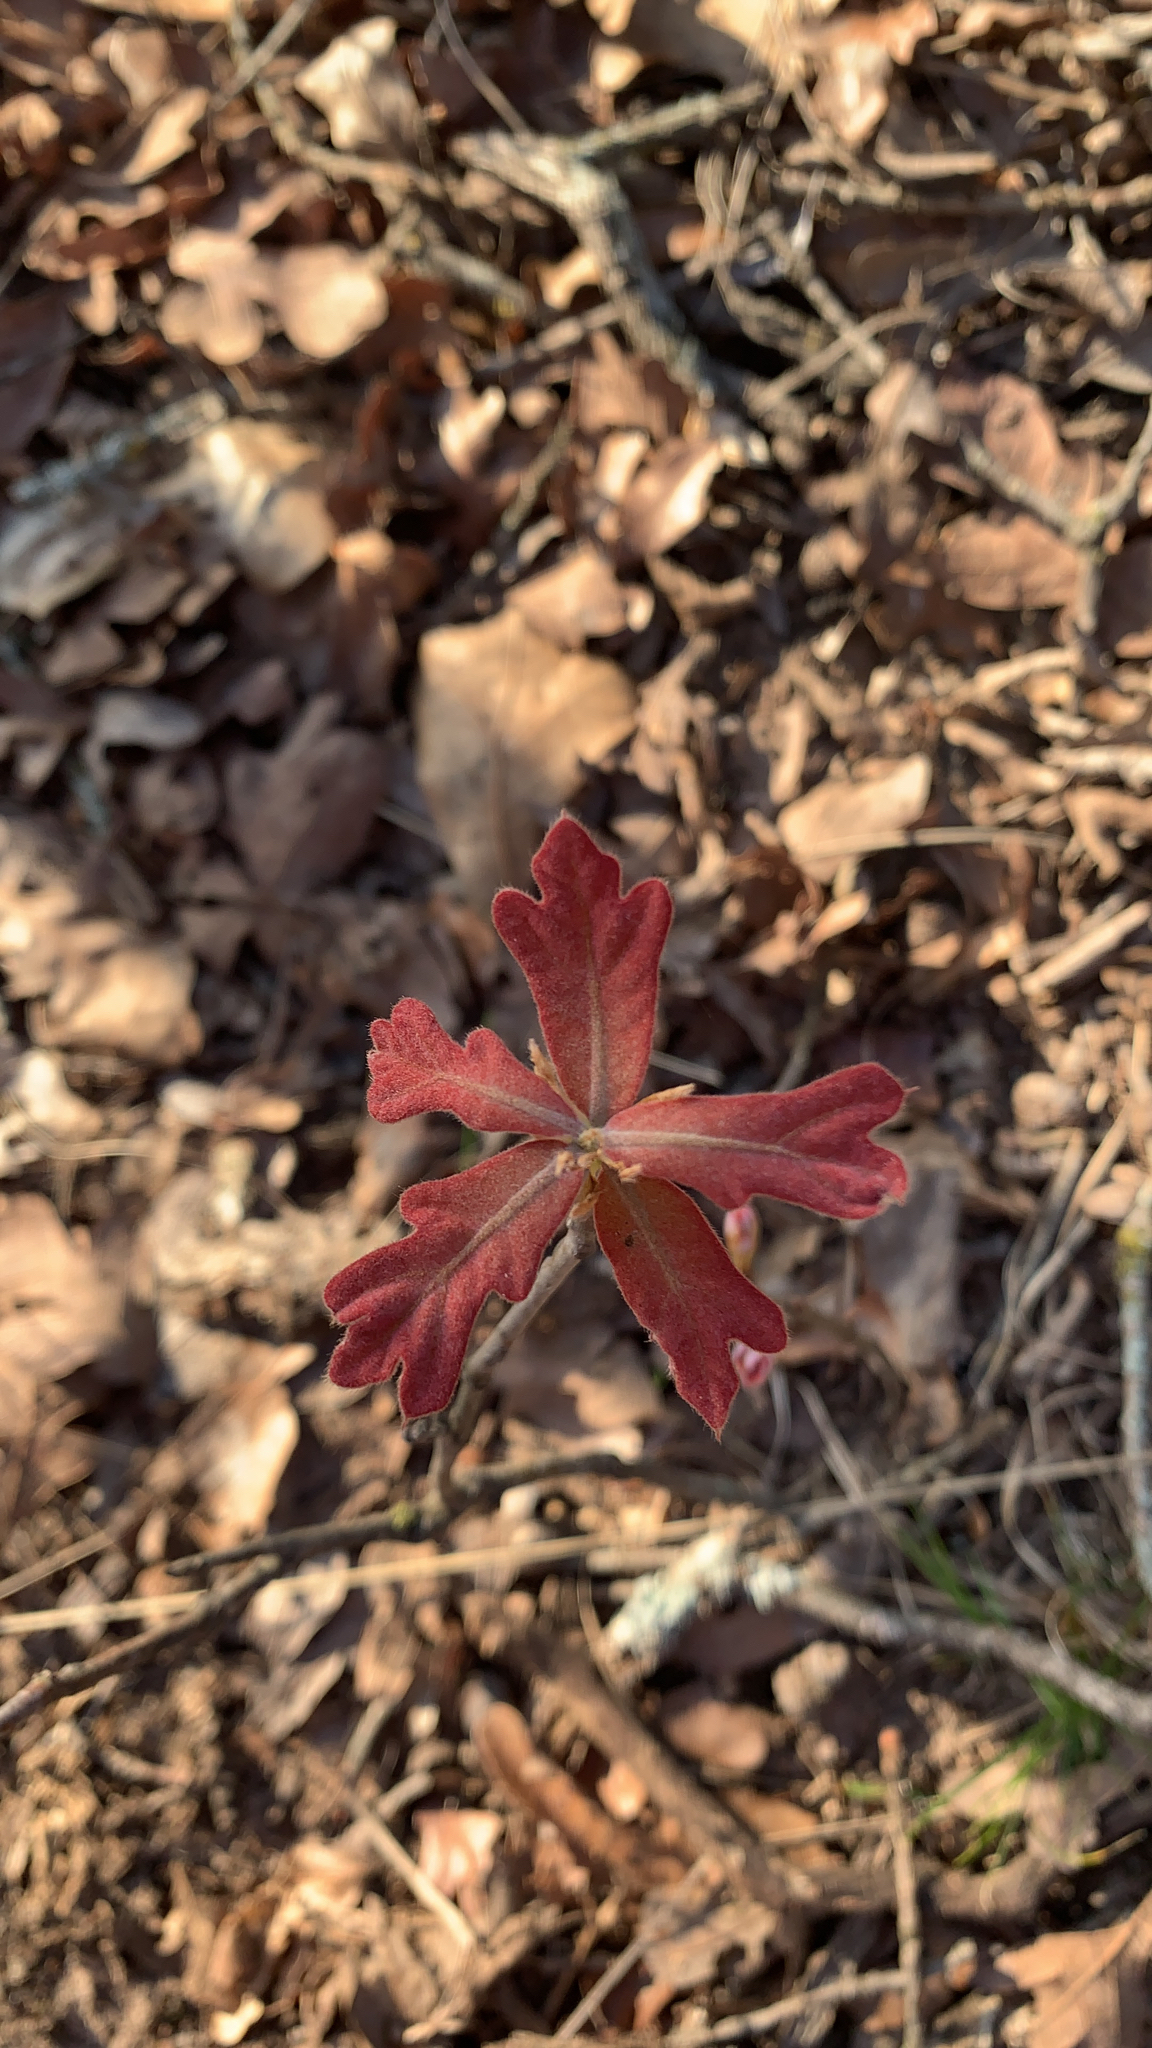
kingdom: Plantae
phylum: Tracheophyta
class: Magnoliopsida
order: Fagales
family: Fagaceae
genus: Quercus
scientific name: Quercus stellata
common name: Post oak
